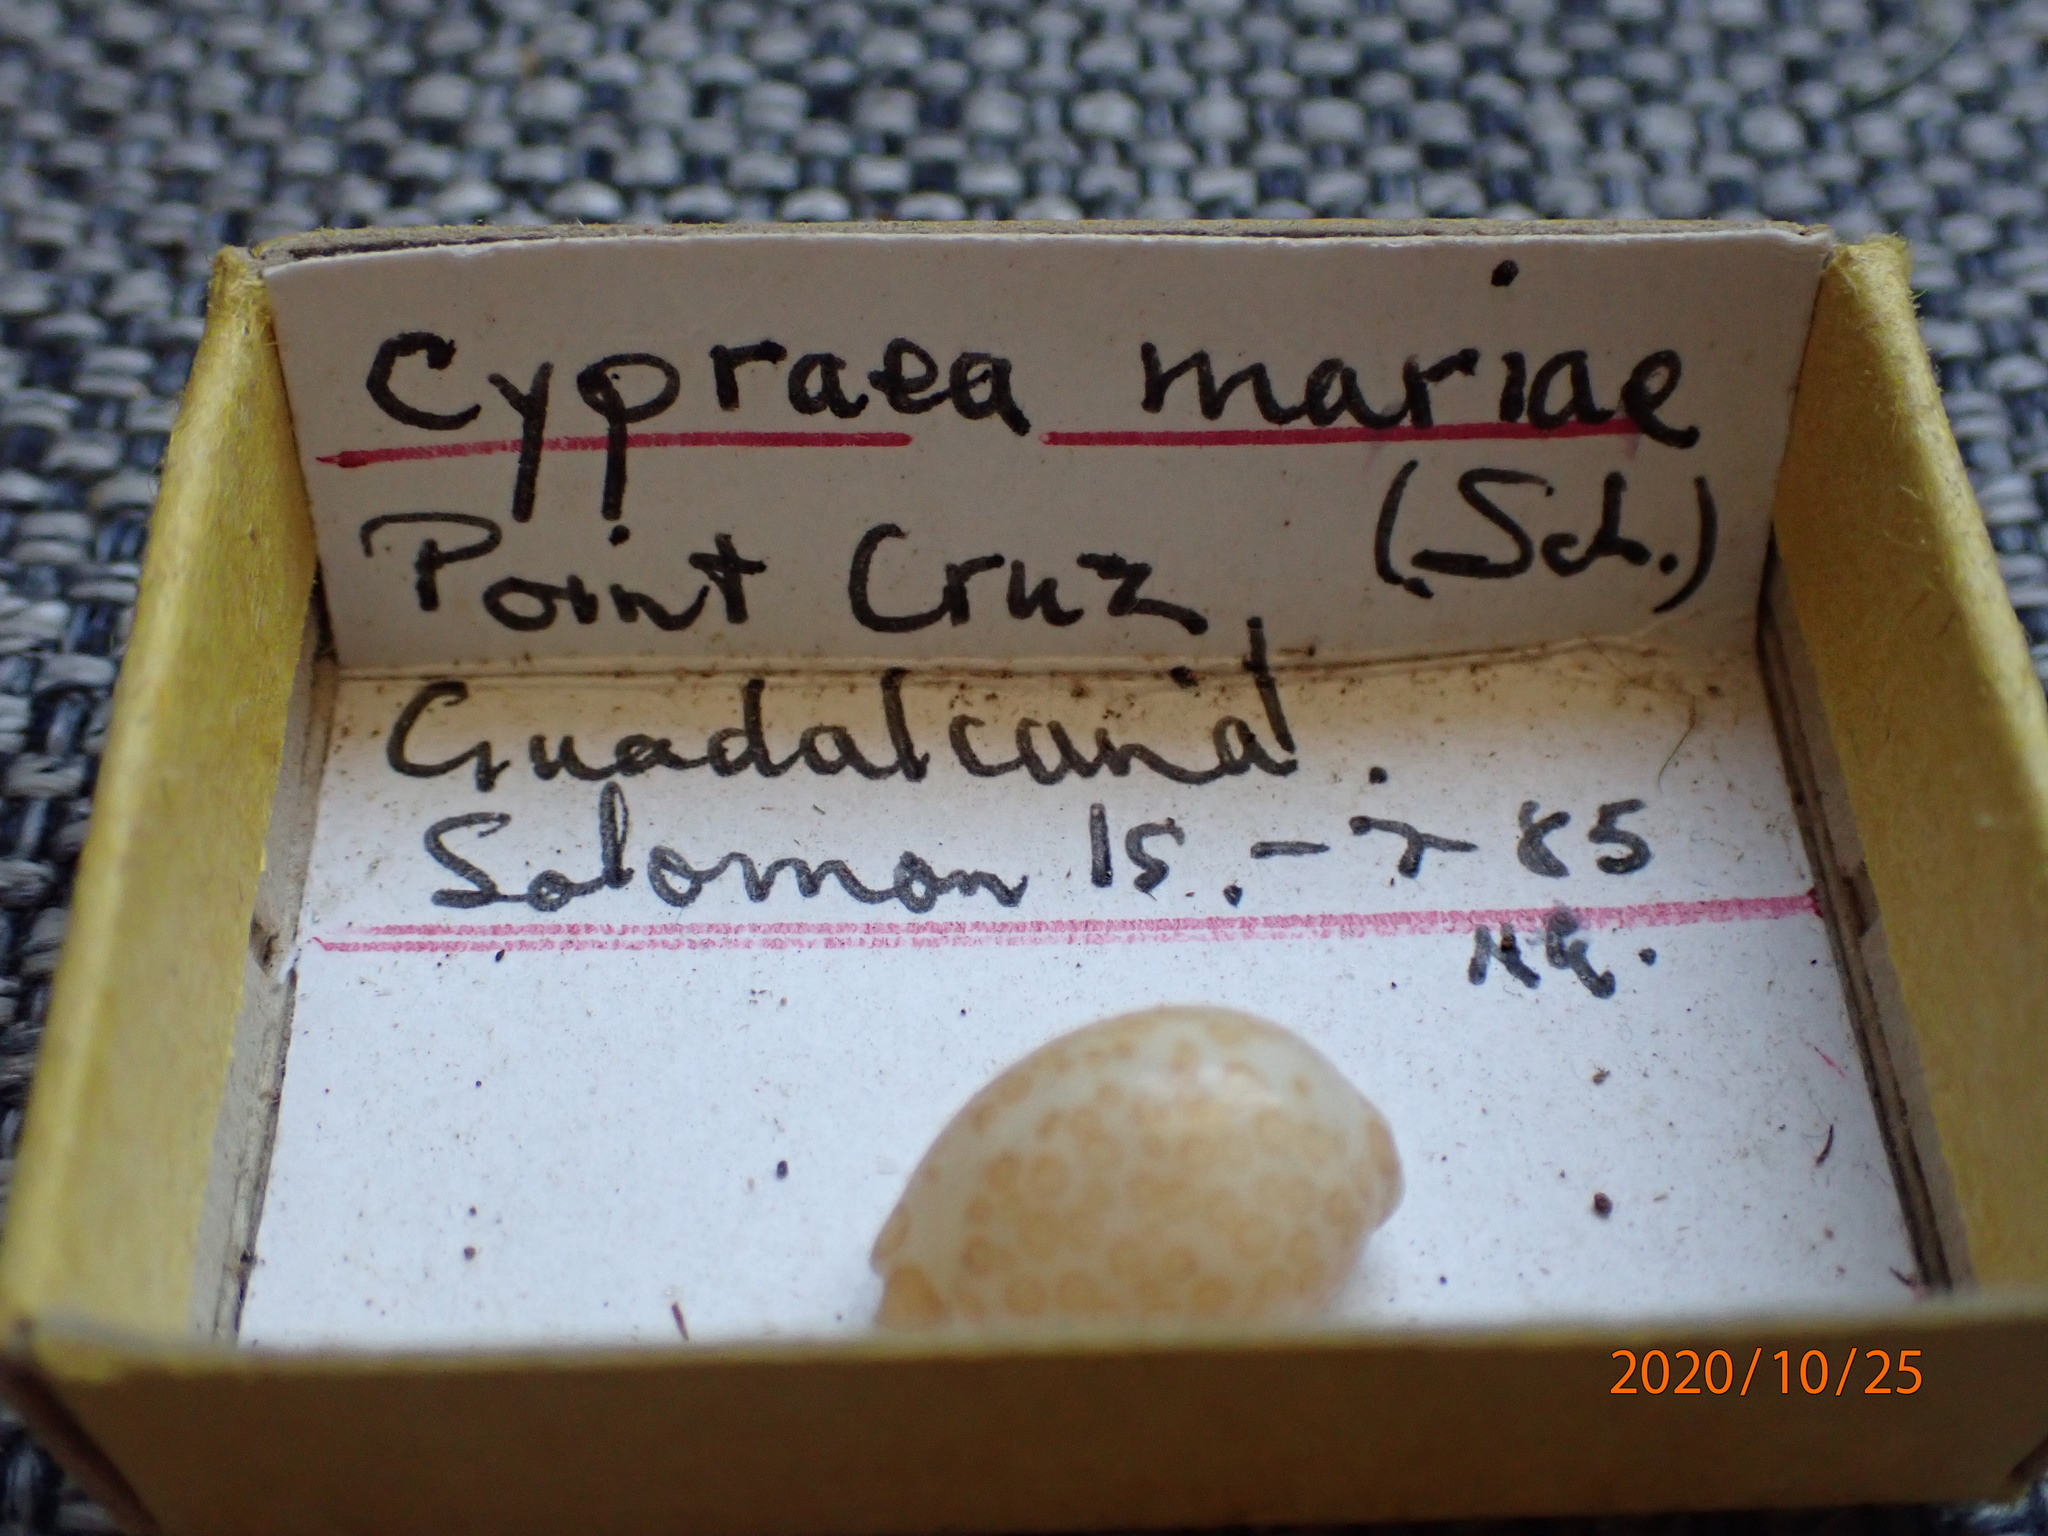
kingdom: Animalia
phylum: Mollusca
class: Gastropoda
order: Littorinimorpha
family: Cypraeidae
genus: Annepona
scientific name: Annepona mariae
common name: Maria's cowry
